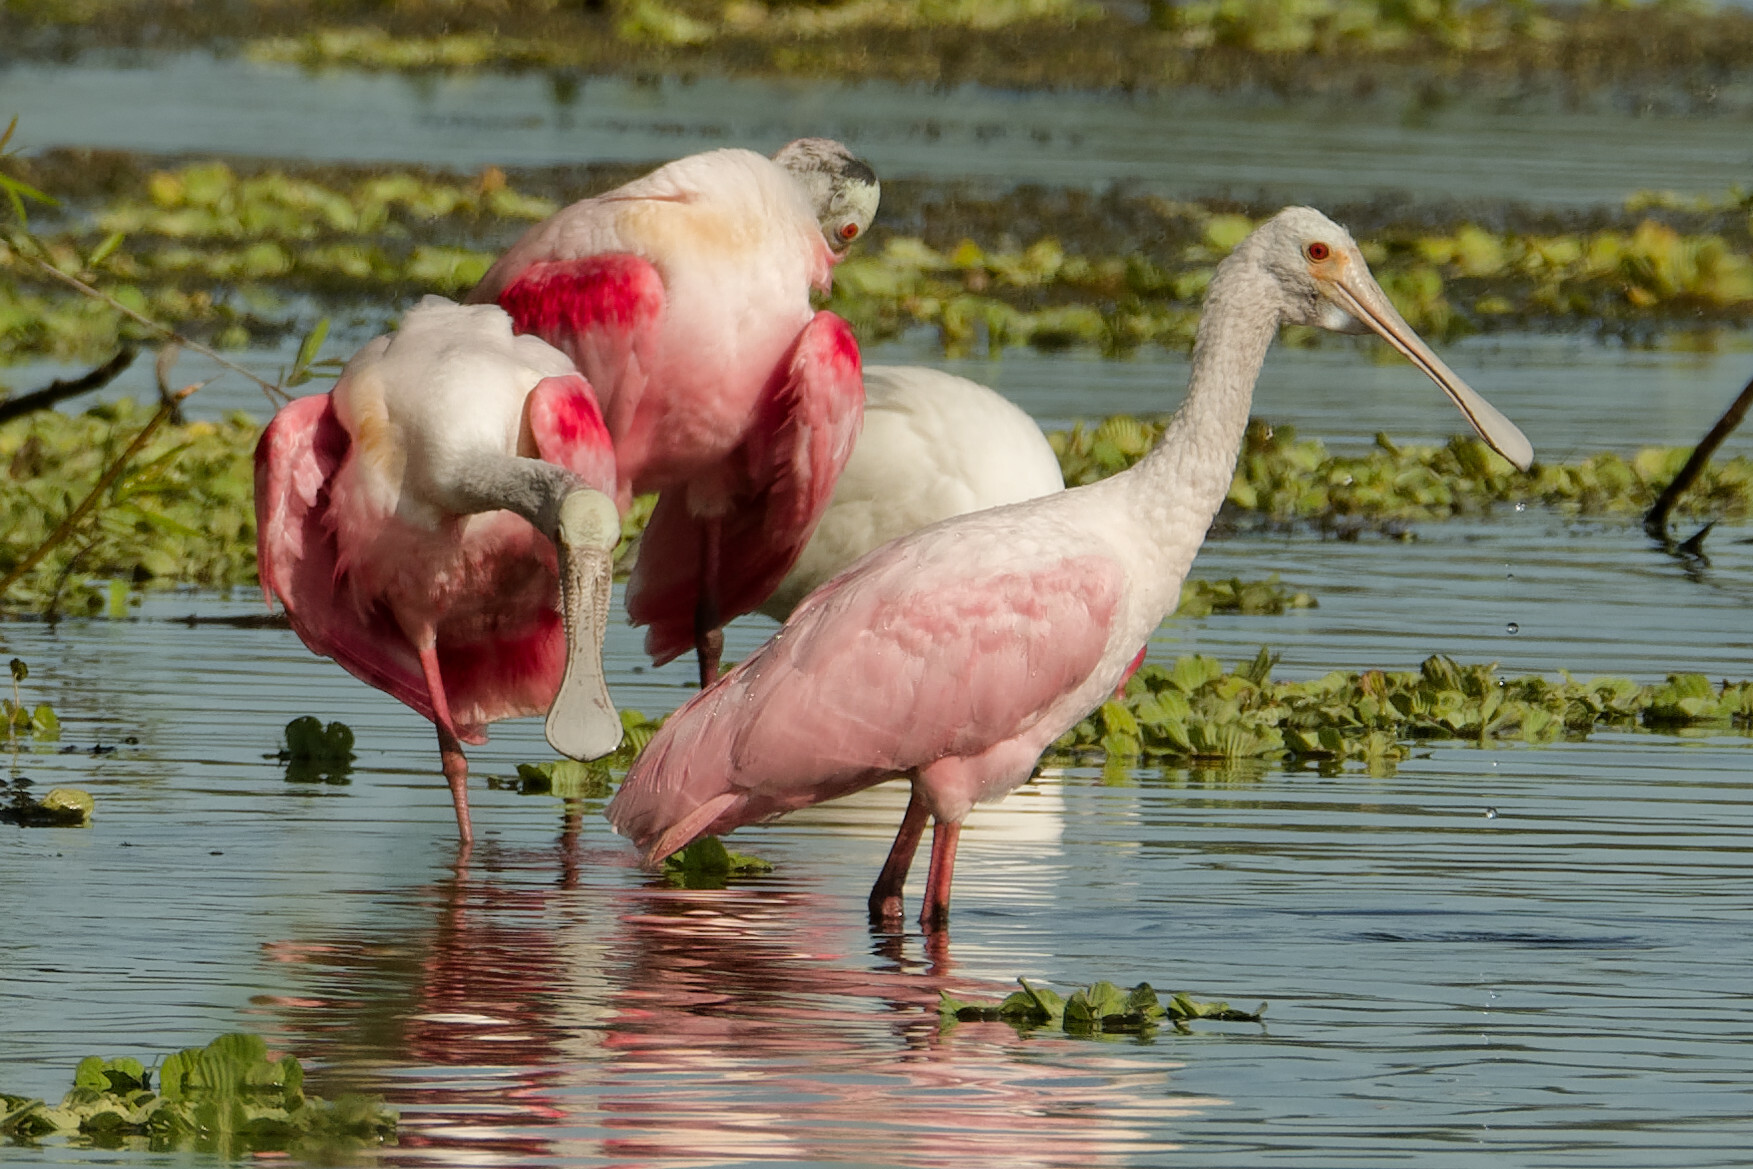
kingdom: Animalia
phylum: Chordata
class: Aves
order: Pelecaniformes
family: Threskiornithidae
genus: Platalea
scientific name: Platalea ajaja
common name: Roseate spoonbill
